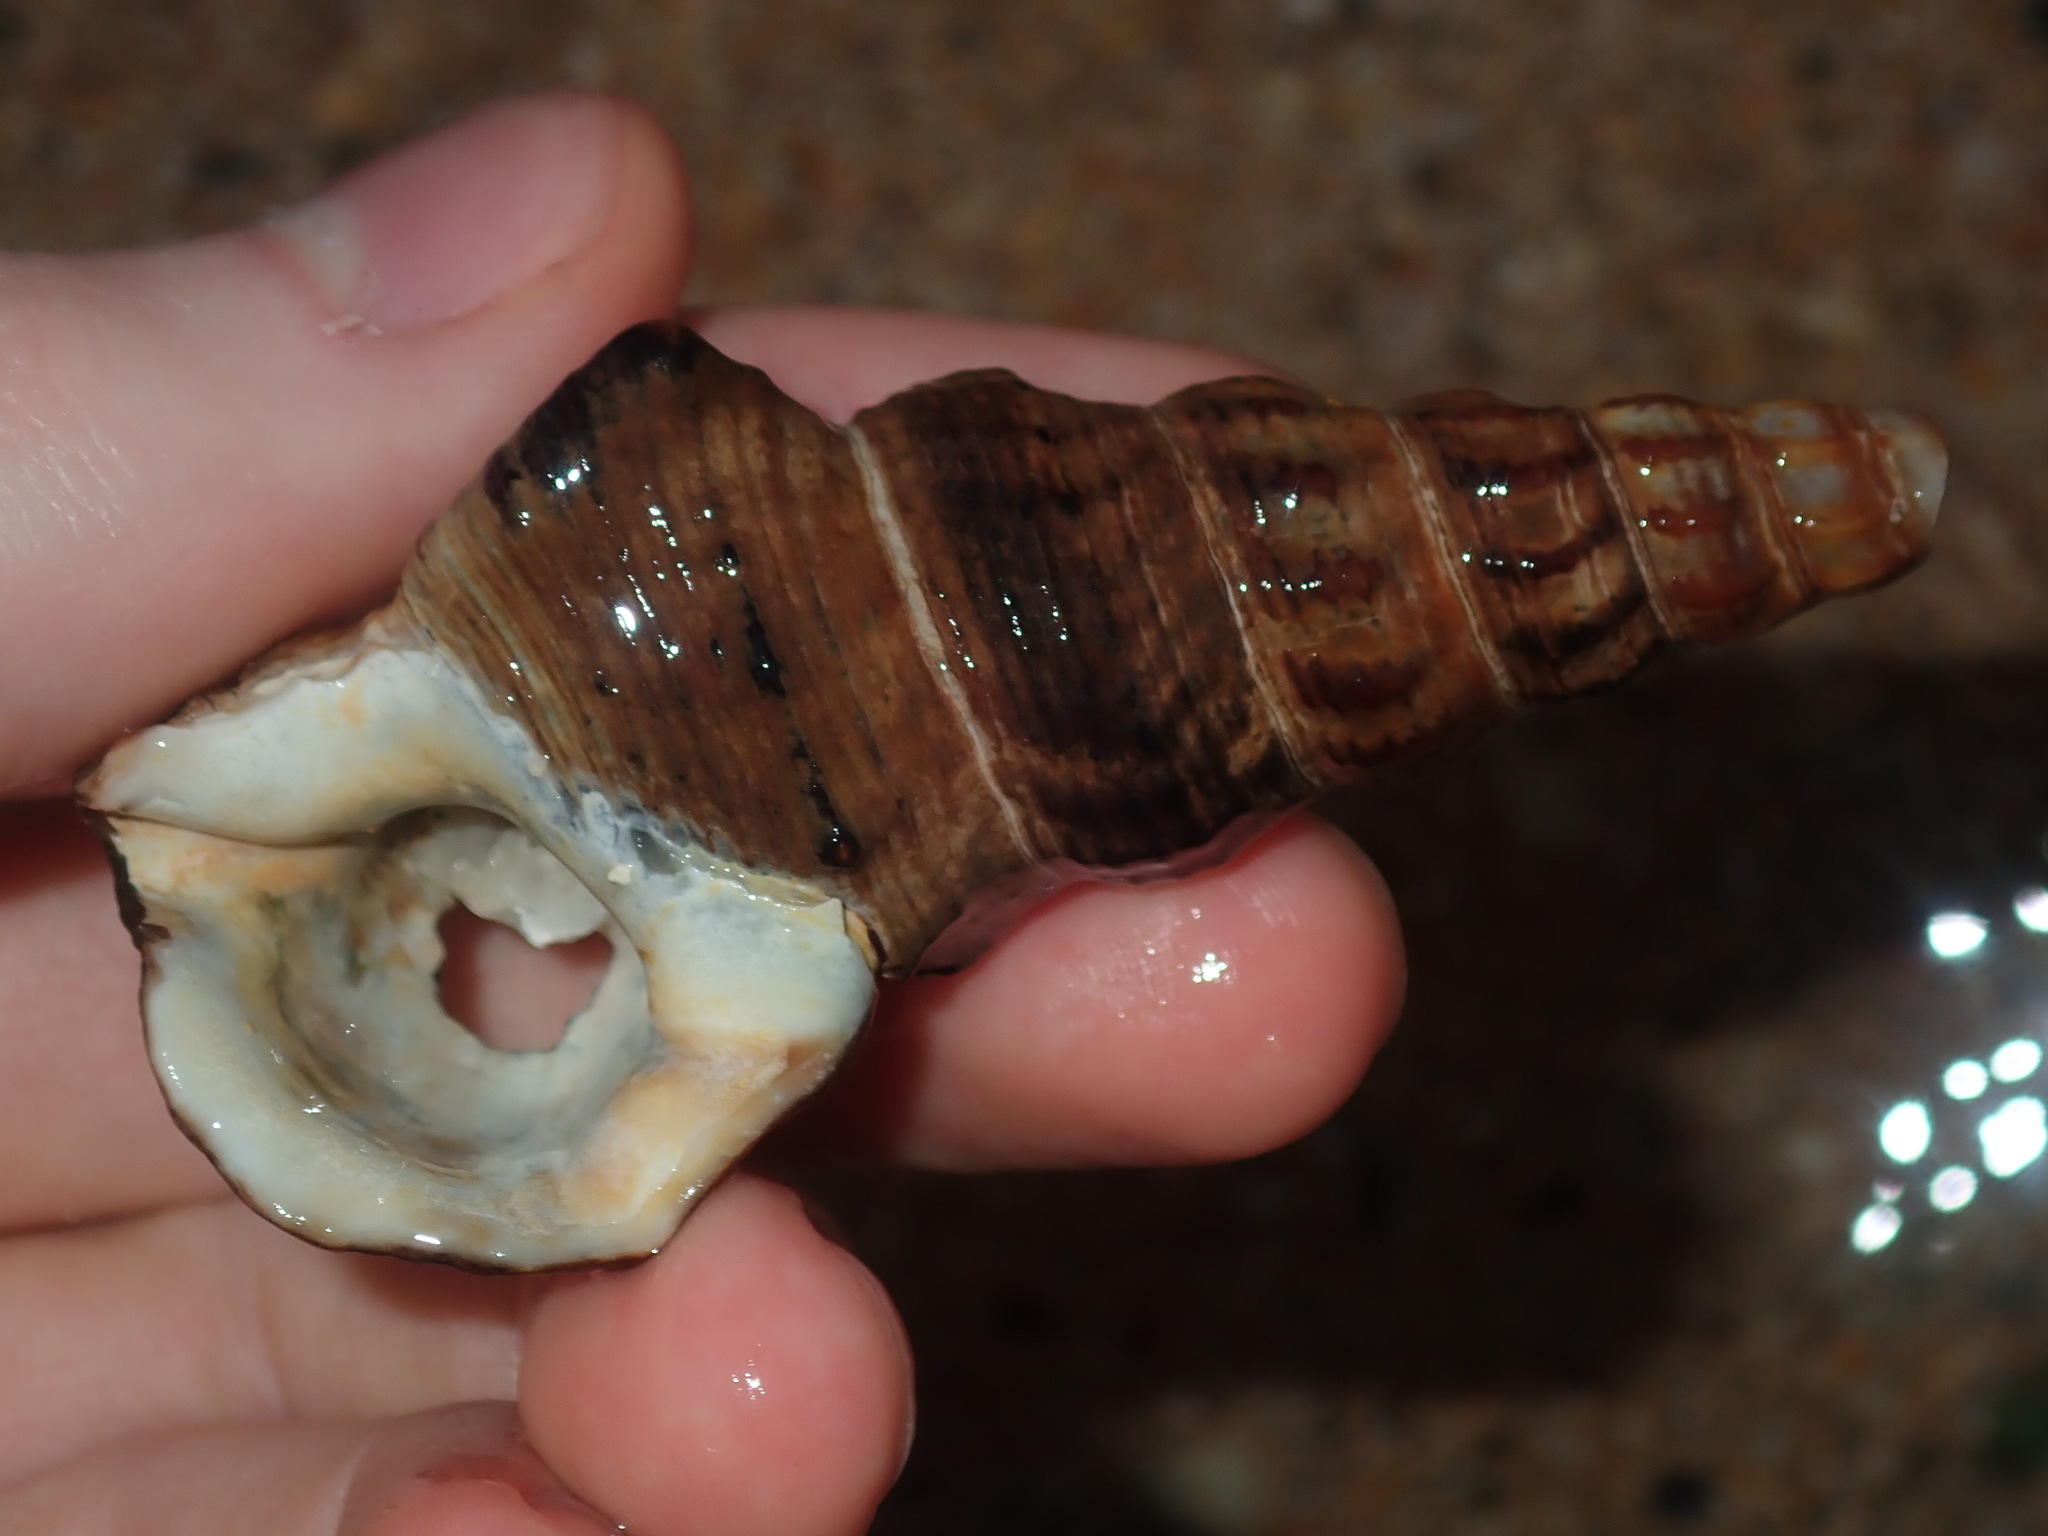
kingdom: Animalia
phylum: Mollusca
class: Gastropoda
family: Batillariidae
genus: Pyrazus
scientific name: Pyrazus ebeninus
